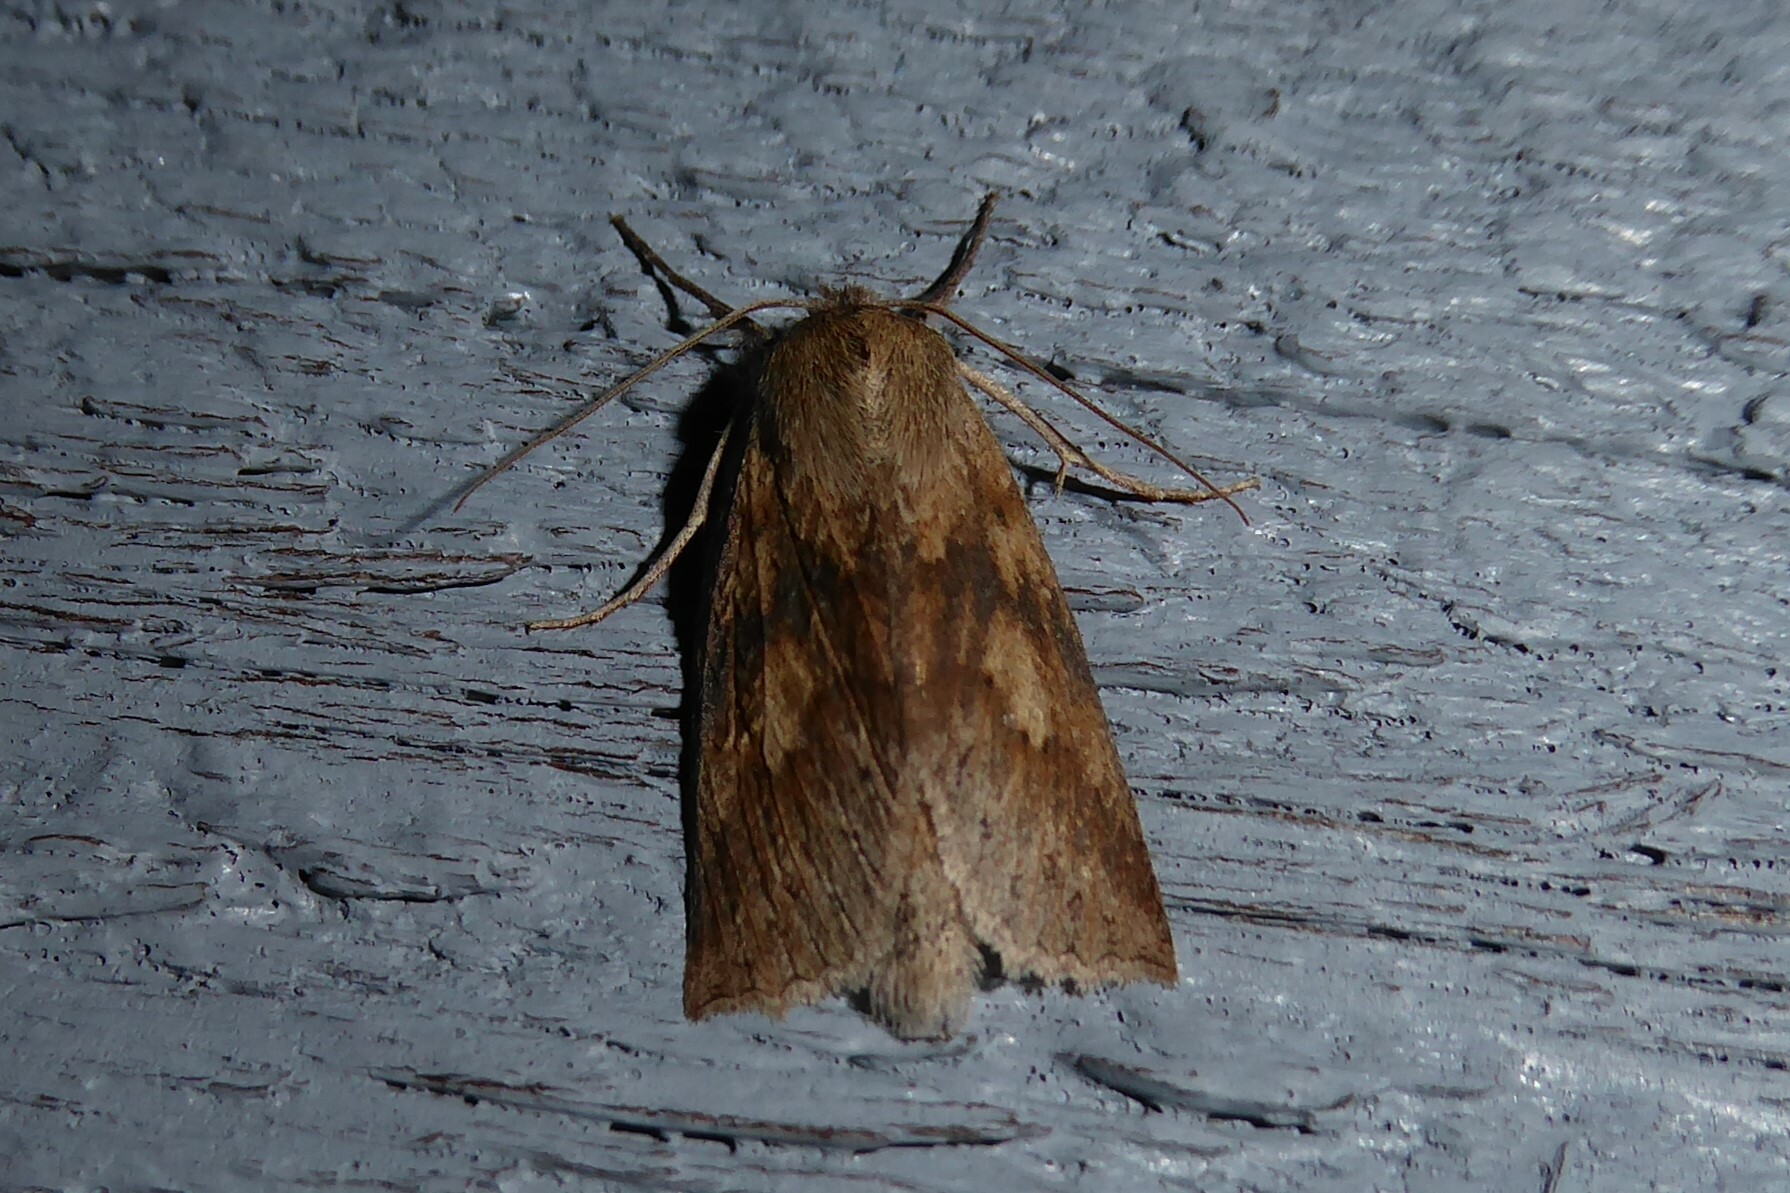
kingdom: Animalia
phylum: Arthropoda
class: Insecta
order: Lepidoptera
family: Geometridae
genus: Declana
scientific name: Declana leptomera
